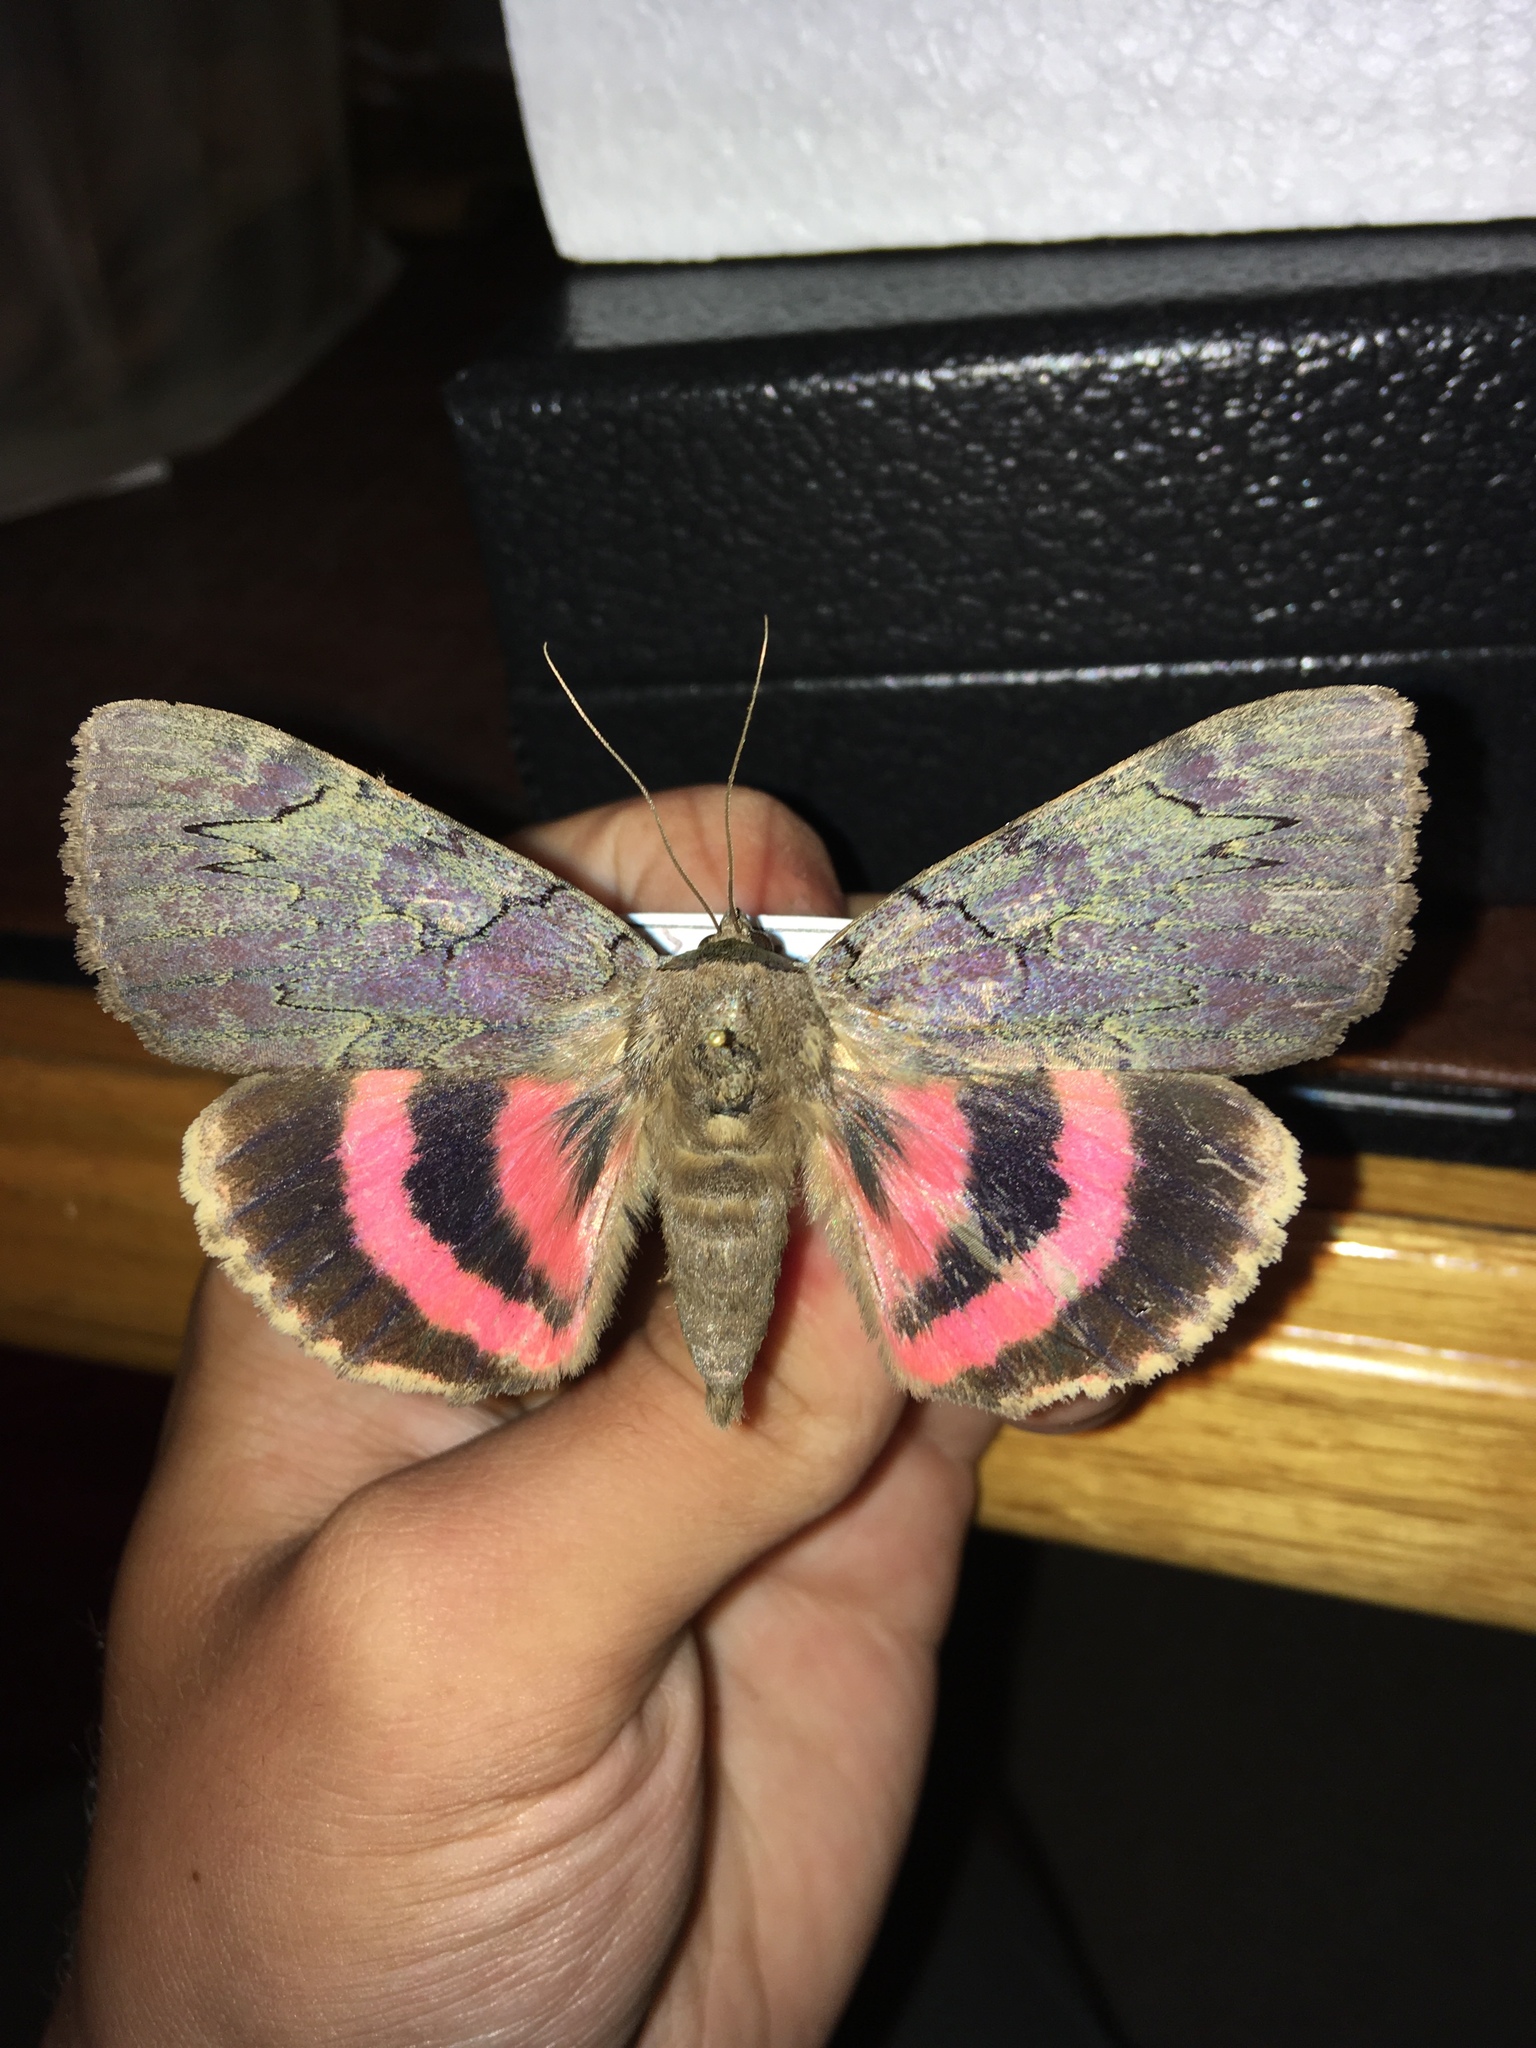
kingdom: Animalia
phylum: Arthropoda
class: Insecta
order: Lepidoptera
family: Erebidae
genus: Catocala
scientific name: Catocala cara
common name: Darling underwing
